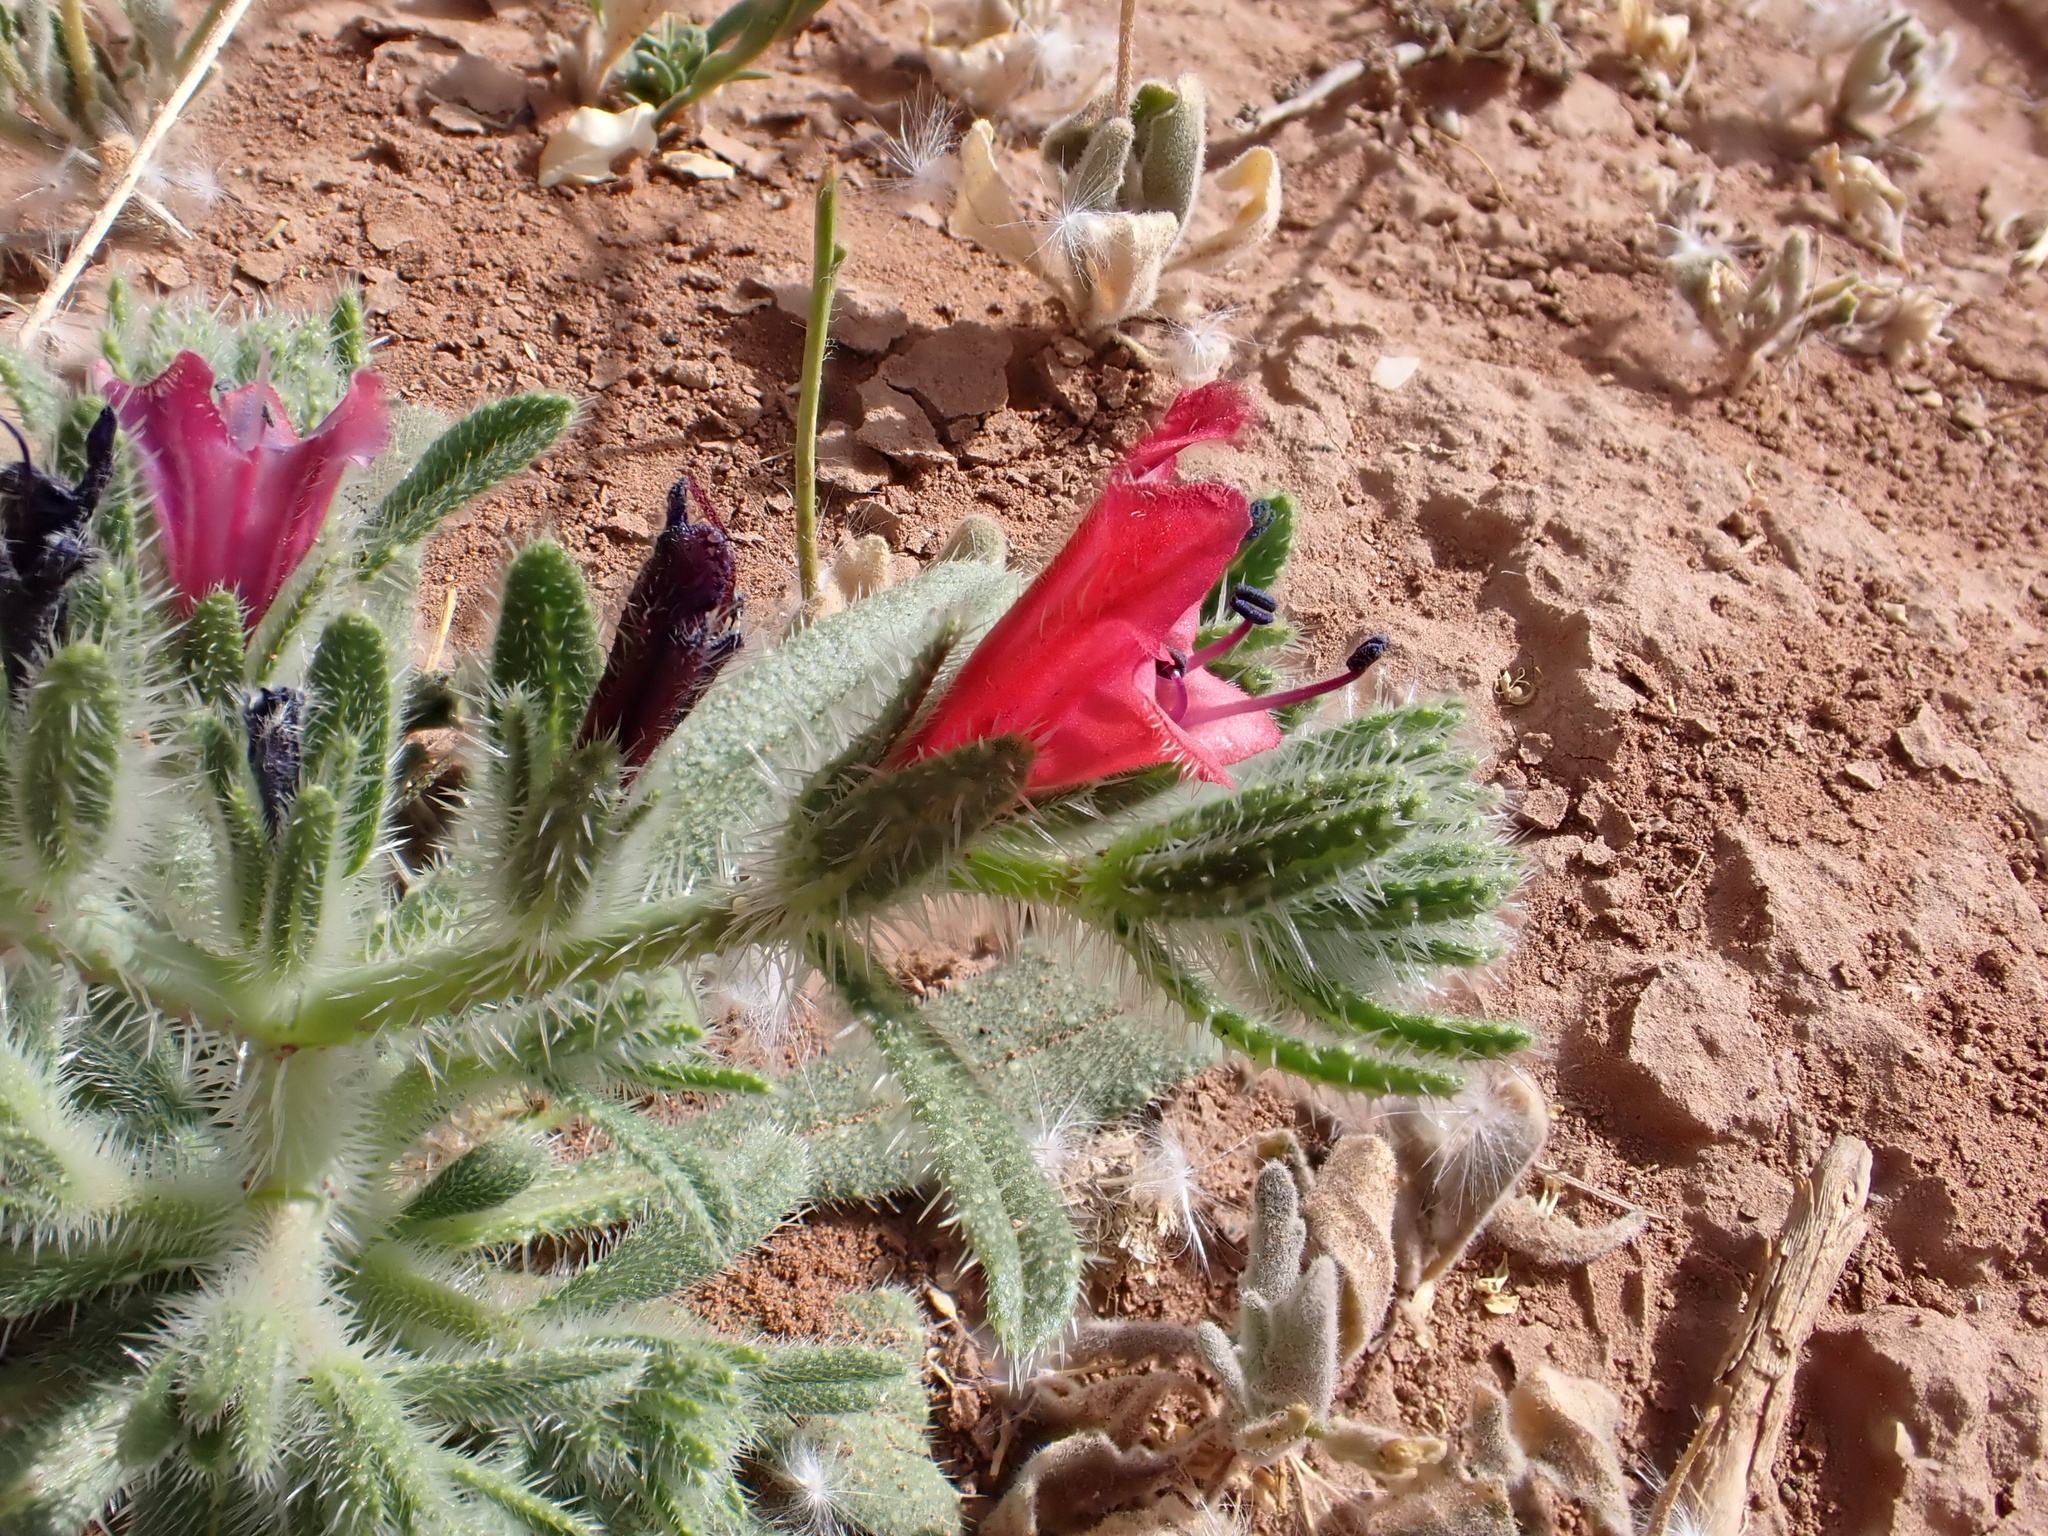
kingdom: Plantae
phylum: Tracheophyta
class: Magnoliopsida
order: Boraginales
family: Boraginaceae
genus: Echium
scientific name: Echium horridum
